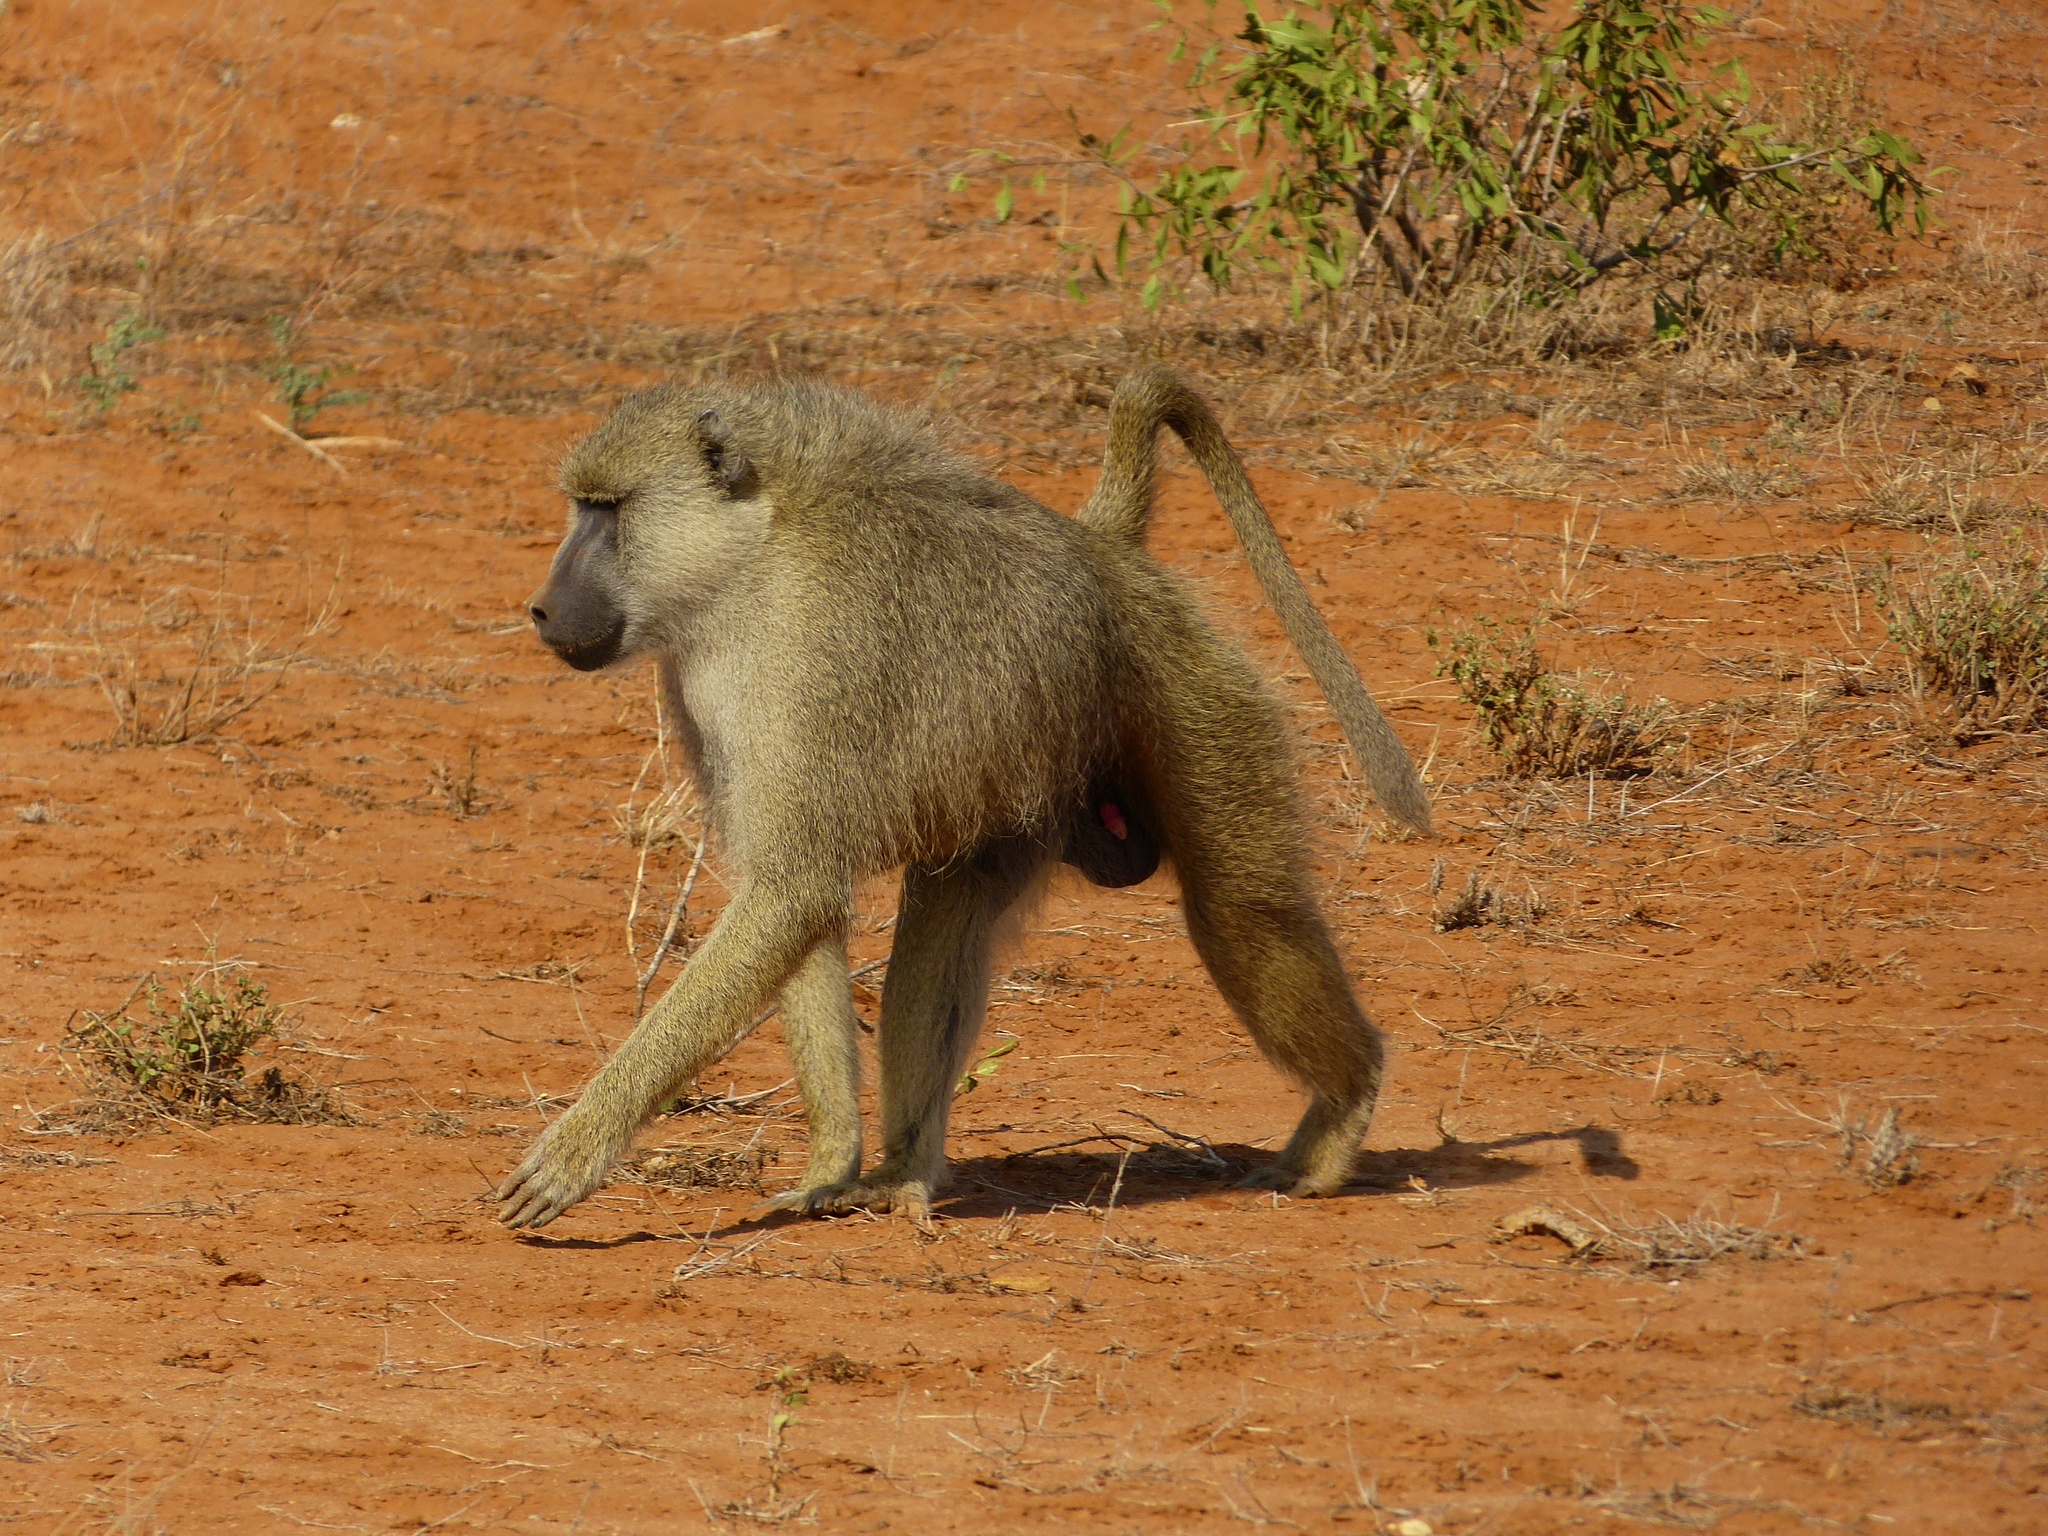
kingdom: Animalia
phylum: Chordata
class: Mammalia
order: Primates
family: Cercopithecidae
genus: Papio
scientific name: Papio cynocephalus
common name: Yellow baboon
